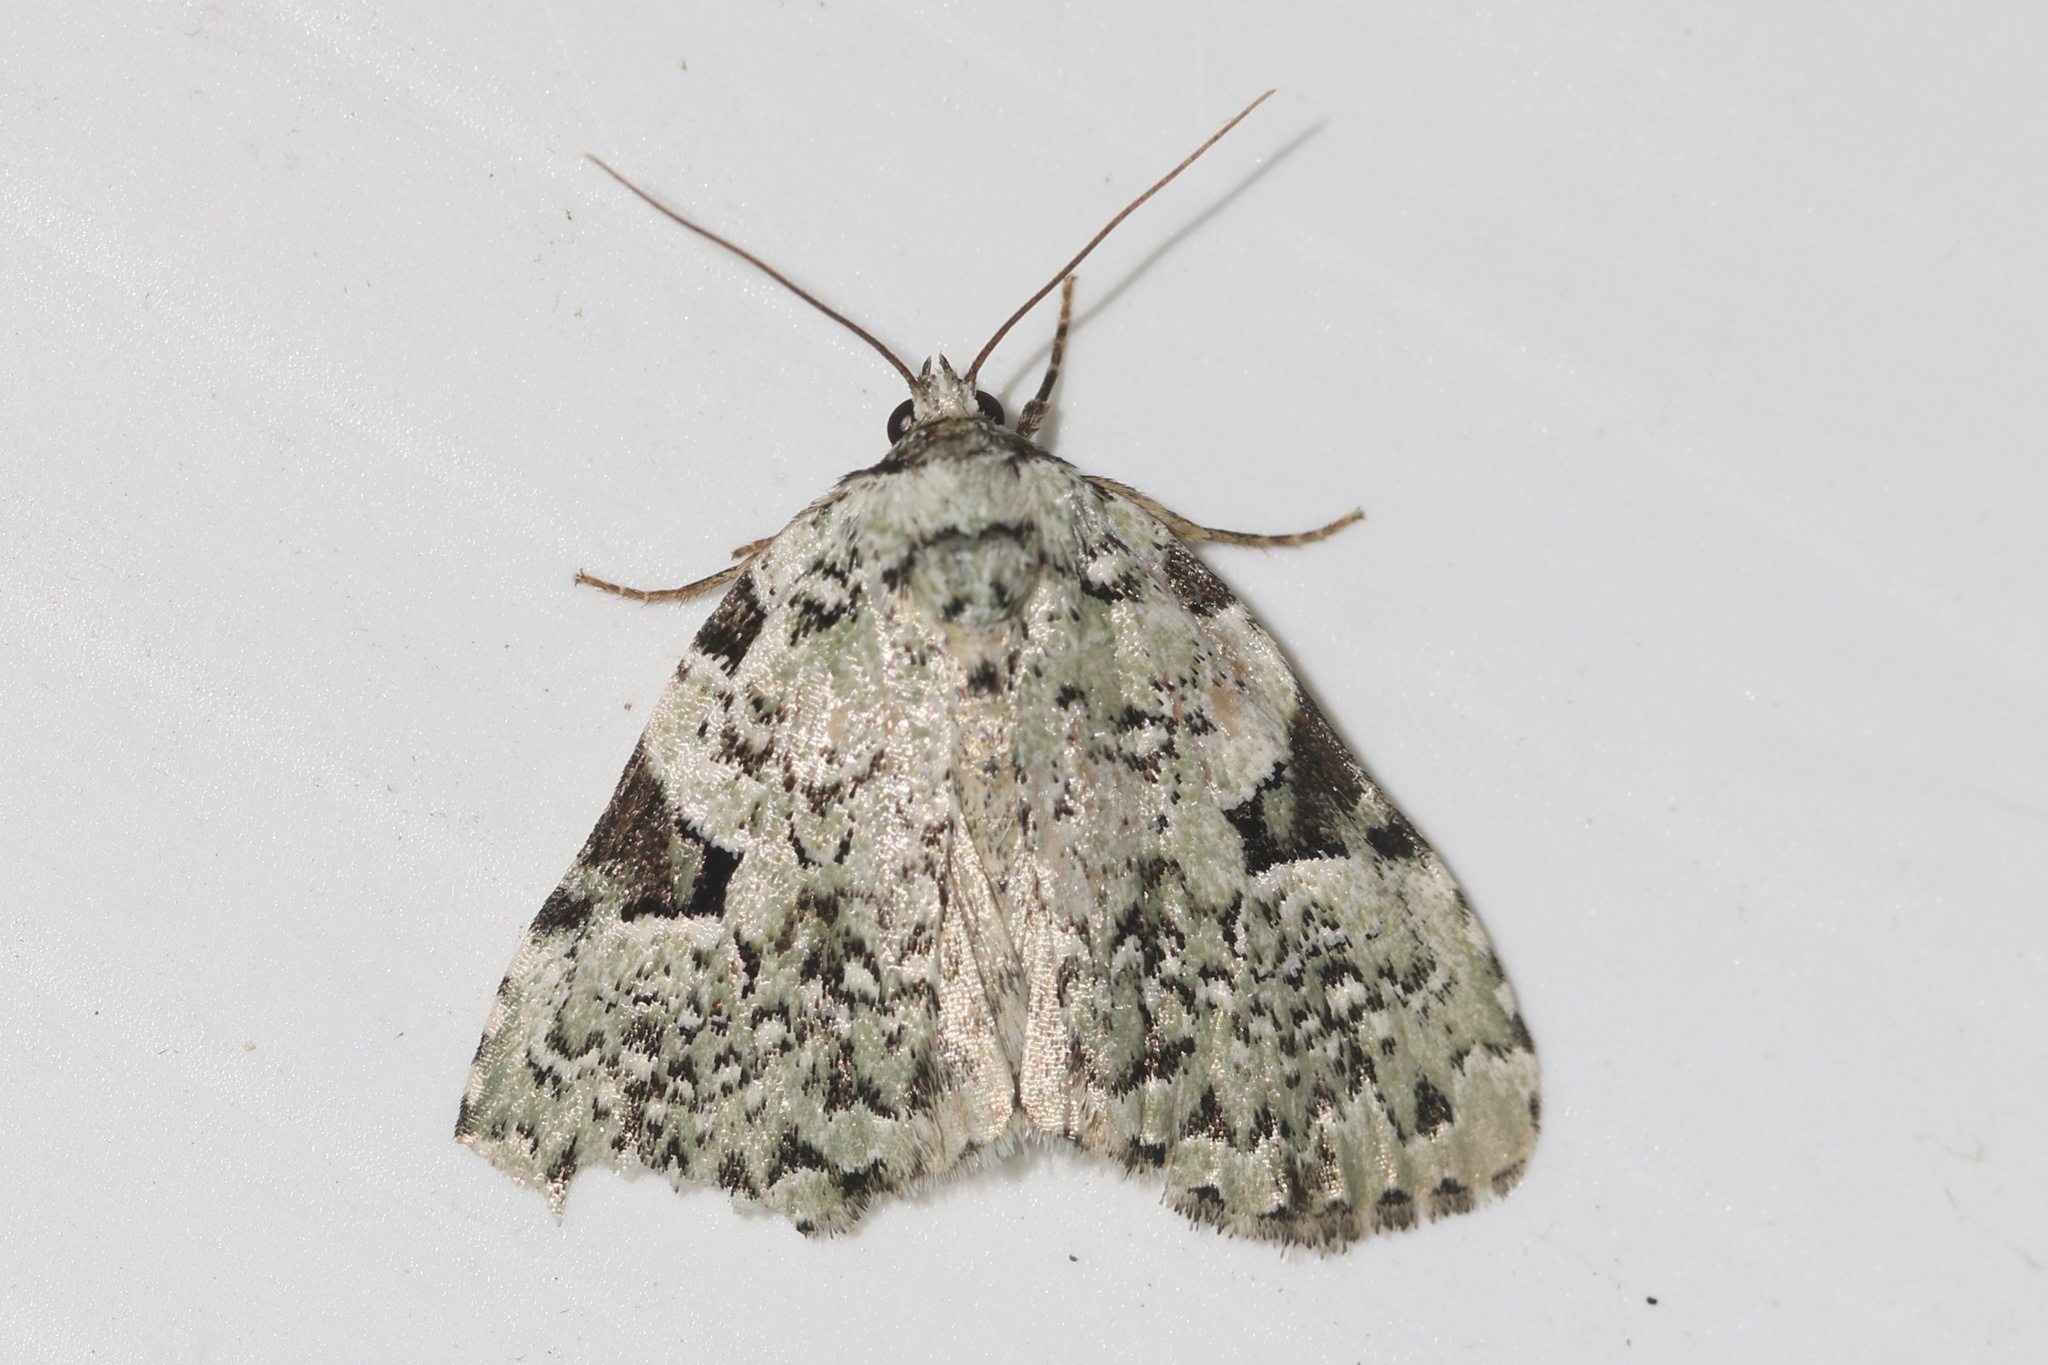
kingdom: Animalia
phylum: Arthropoda
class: Insecta
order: Lepidoptera
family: Noctuidae
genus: Leuconycta
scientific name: Leuconycta diphteroides
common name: Green leuconycta moth
